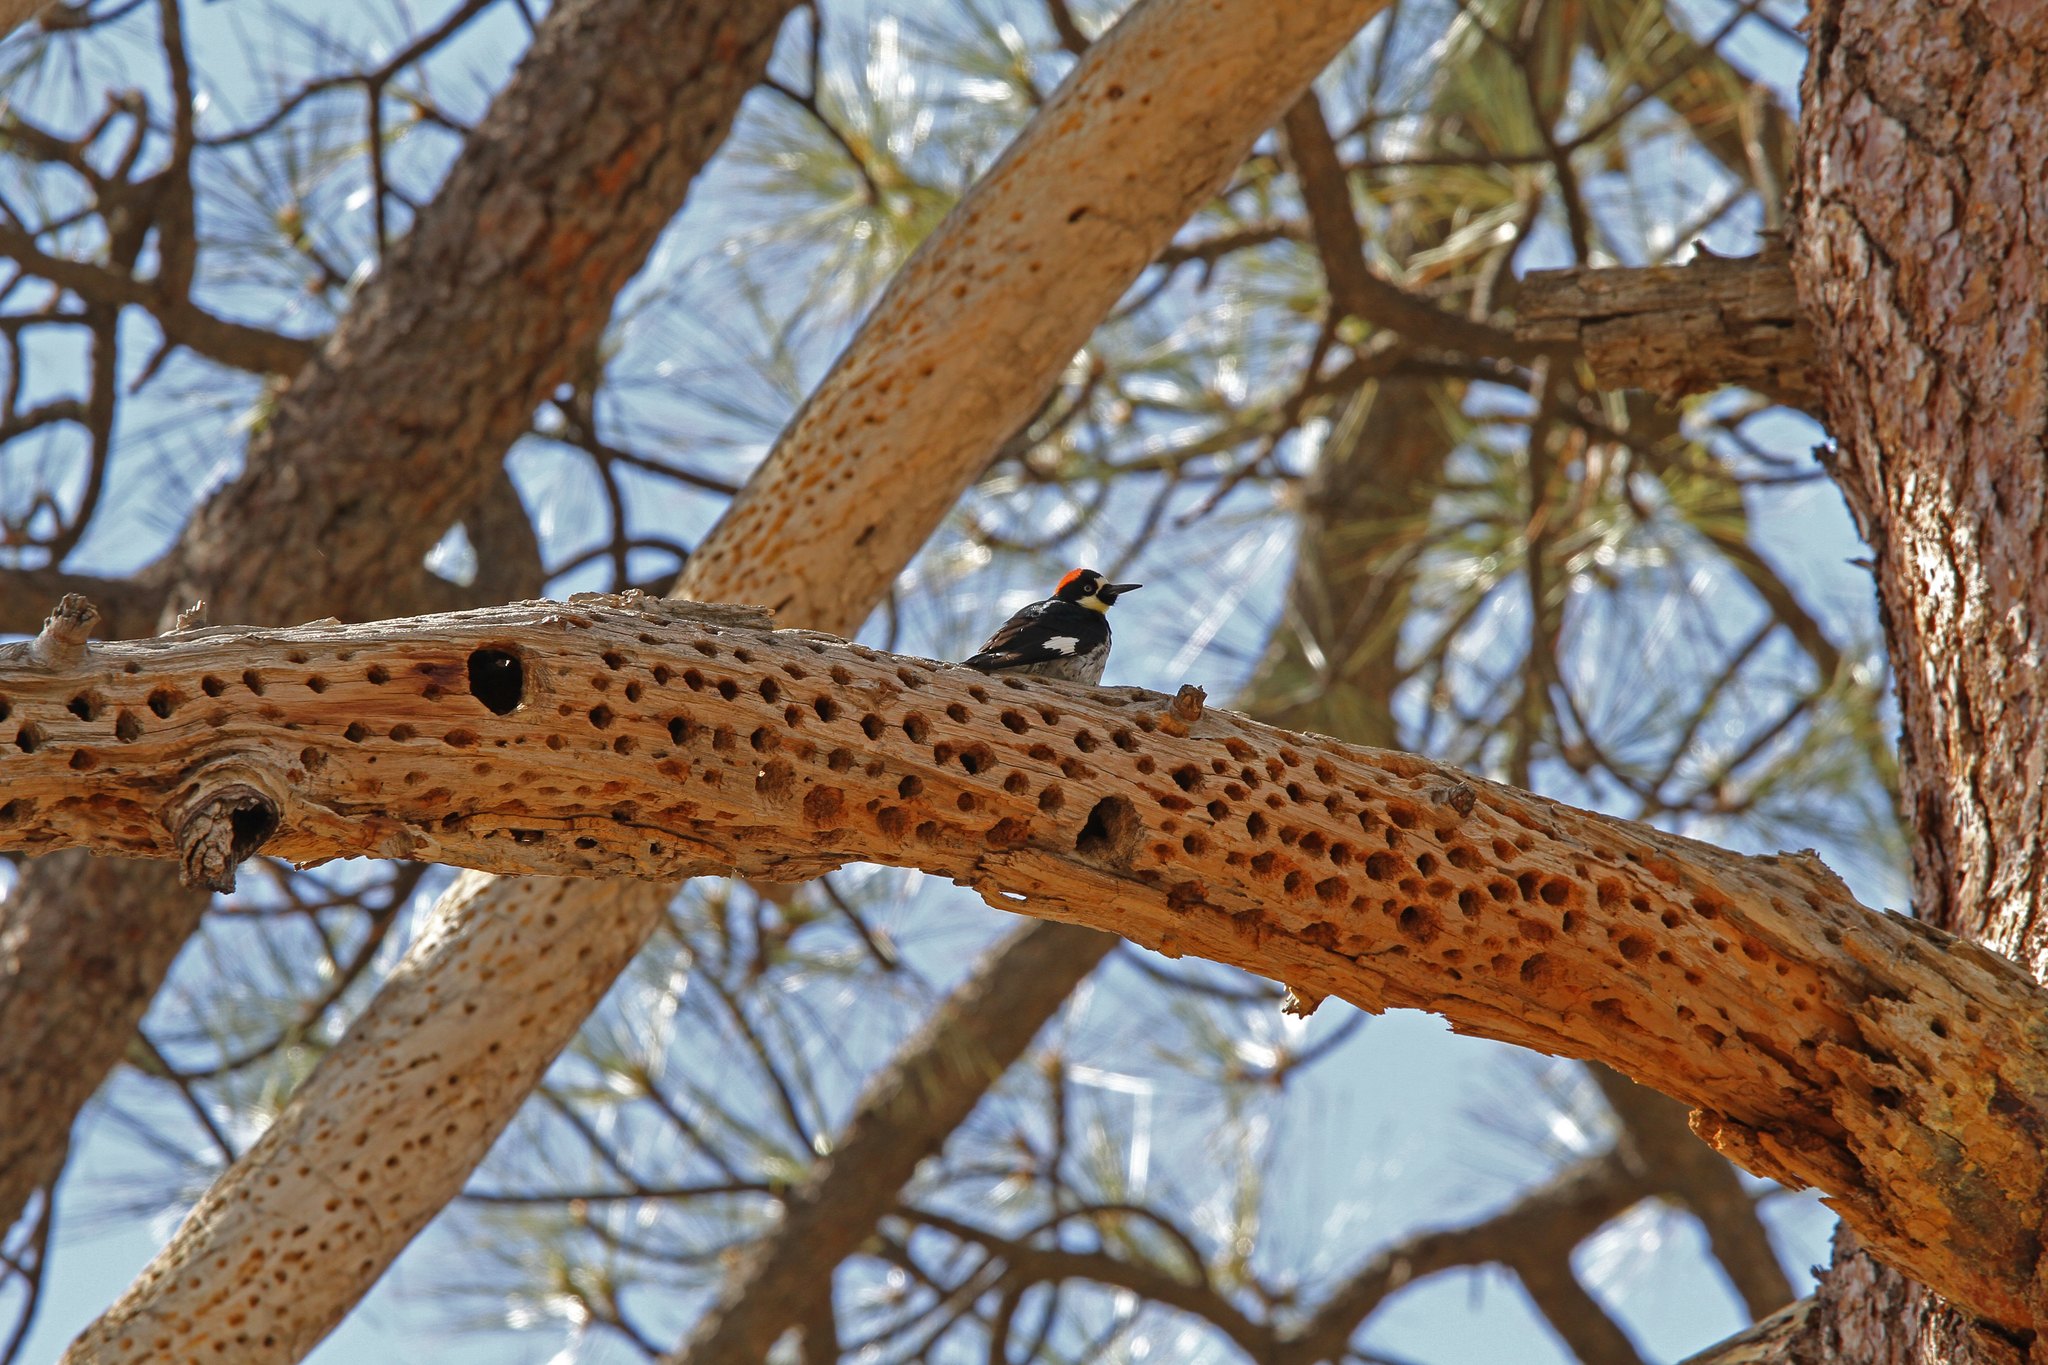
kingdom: Animalia
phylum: Chordata
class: Aves
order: Piciformes
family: Picidae
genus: Melanerpes
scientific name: Melanerpes formicivorus
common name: Acorn woodpecker
